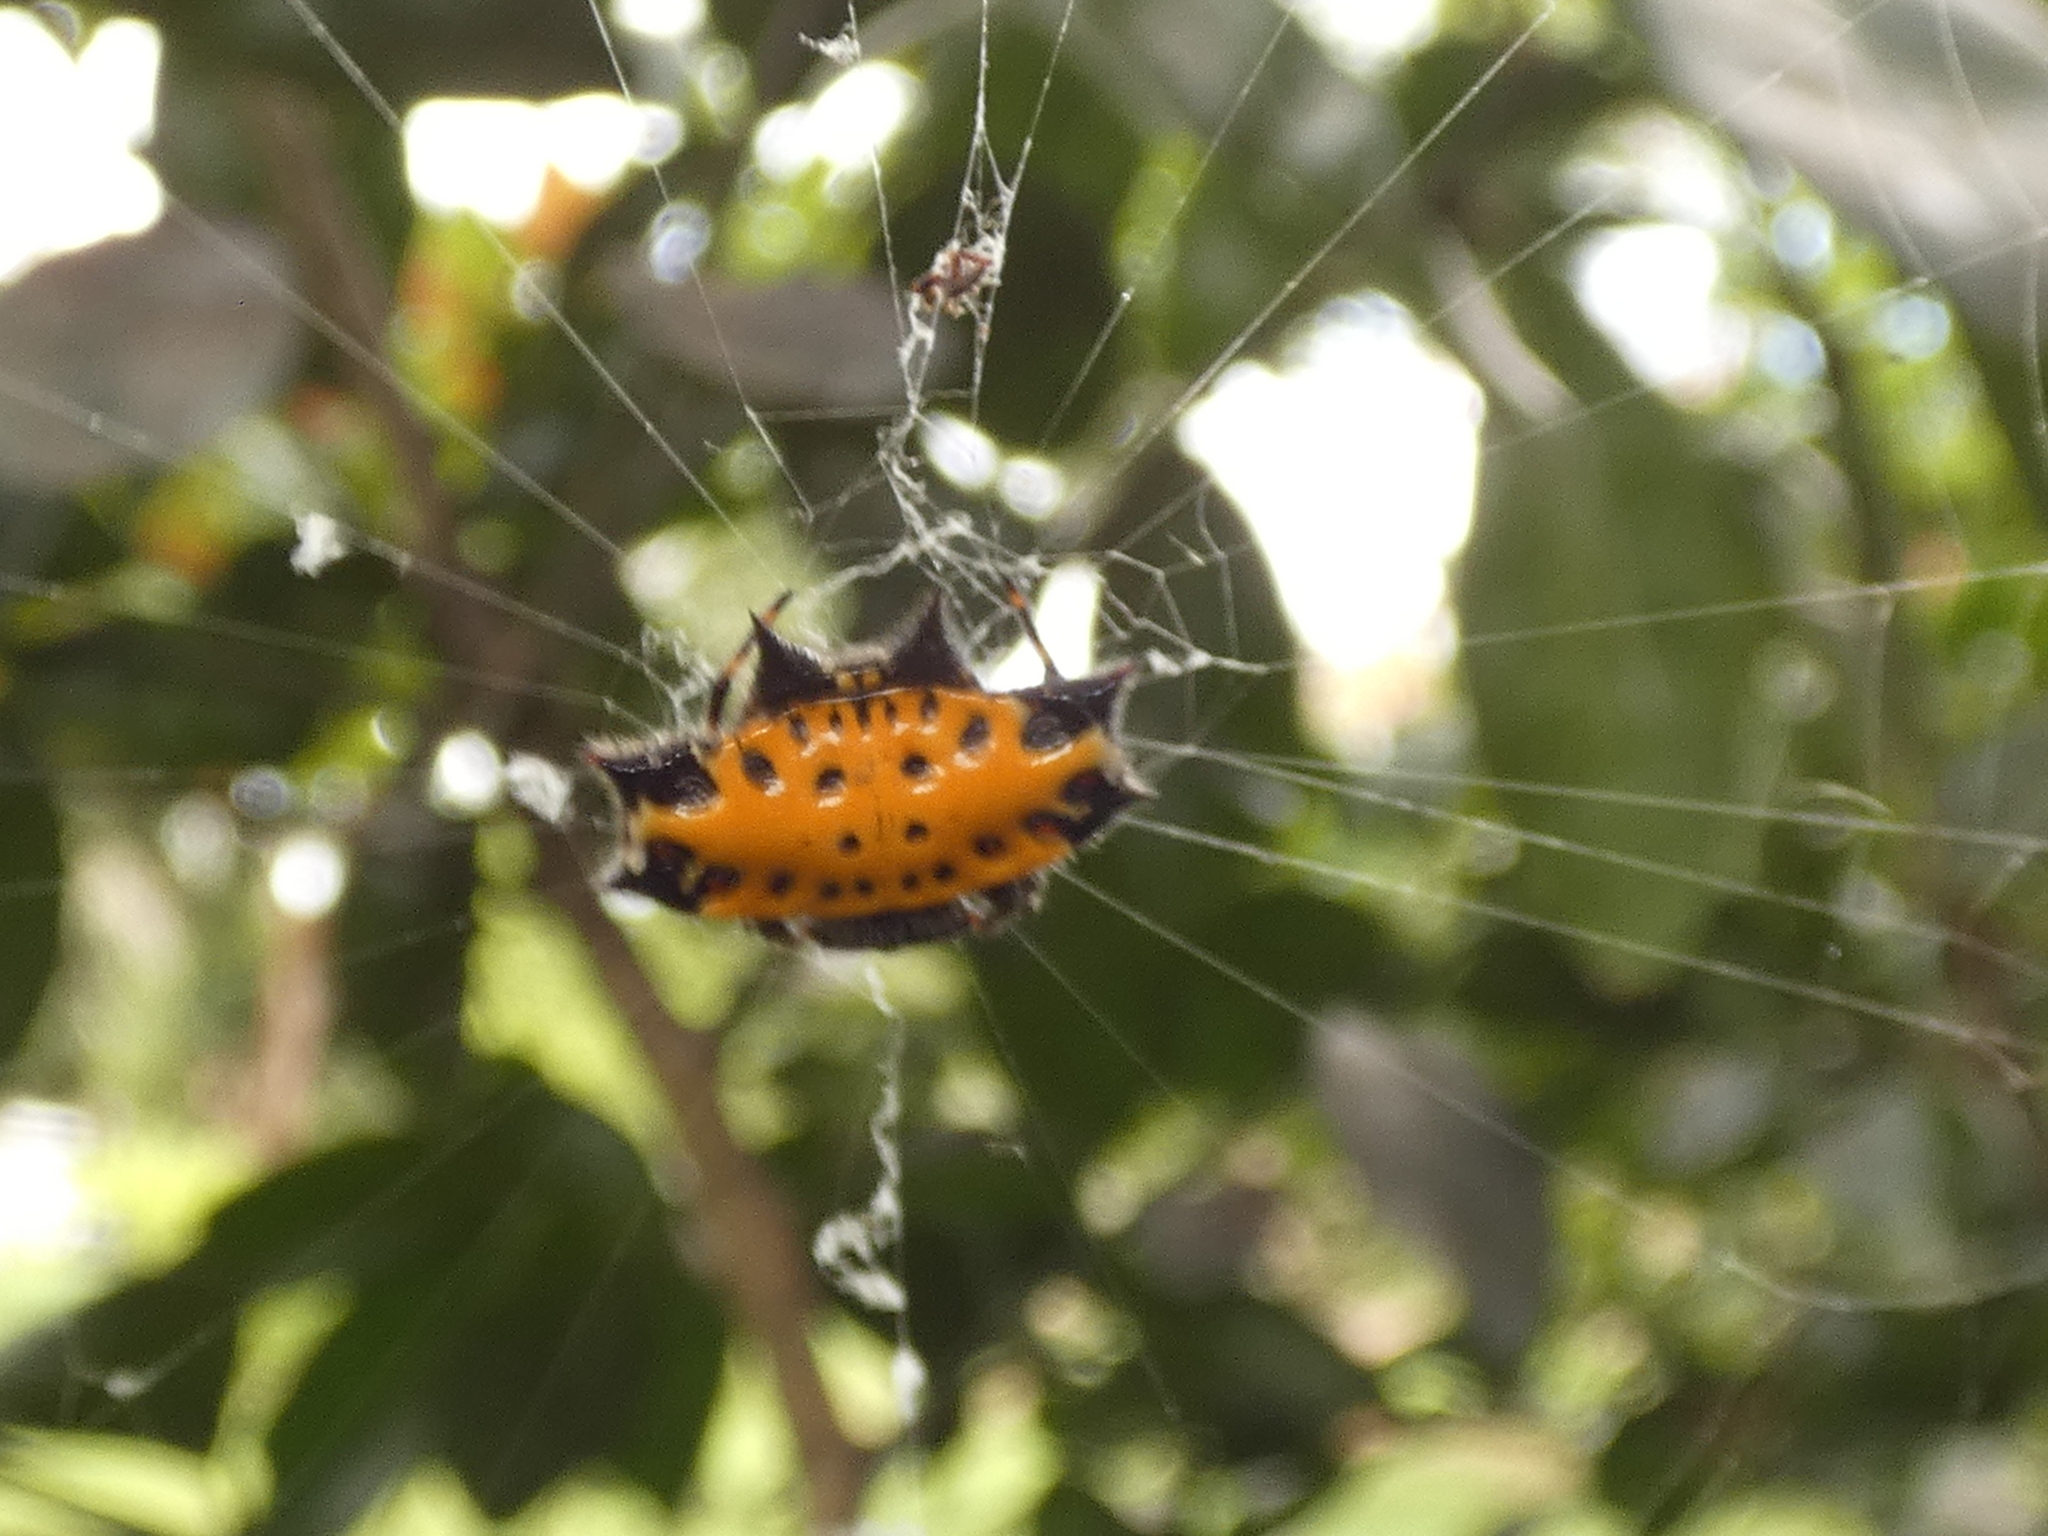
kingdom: Animalia
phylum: Arthropoda
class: Arachnida
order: Araneae
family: Araneidae
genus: Gasteracantha
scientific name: Gasteracantha cancriformis
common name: Orb weavers
